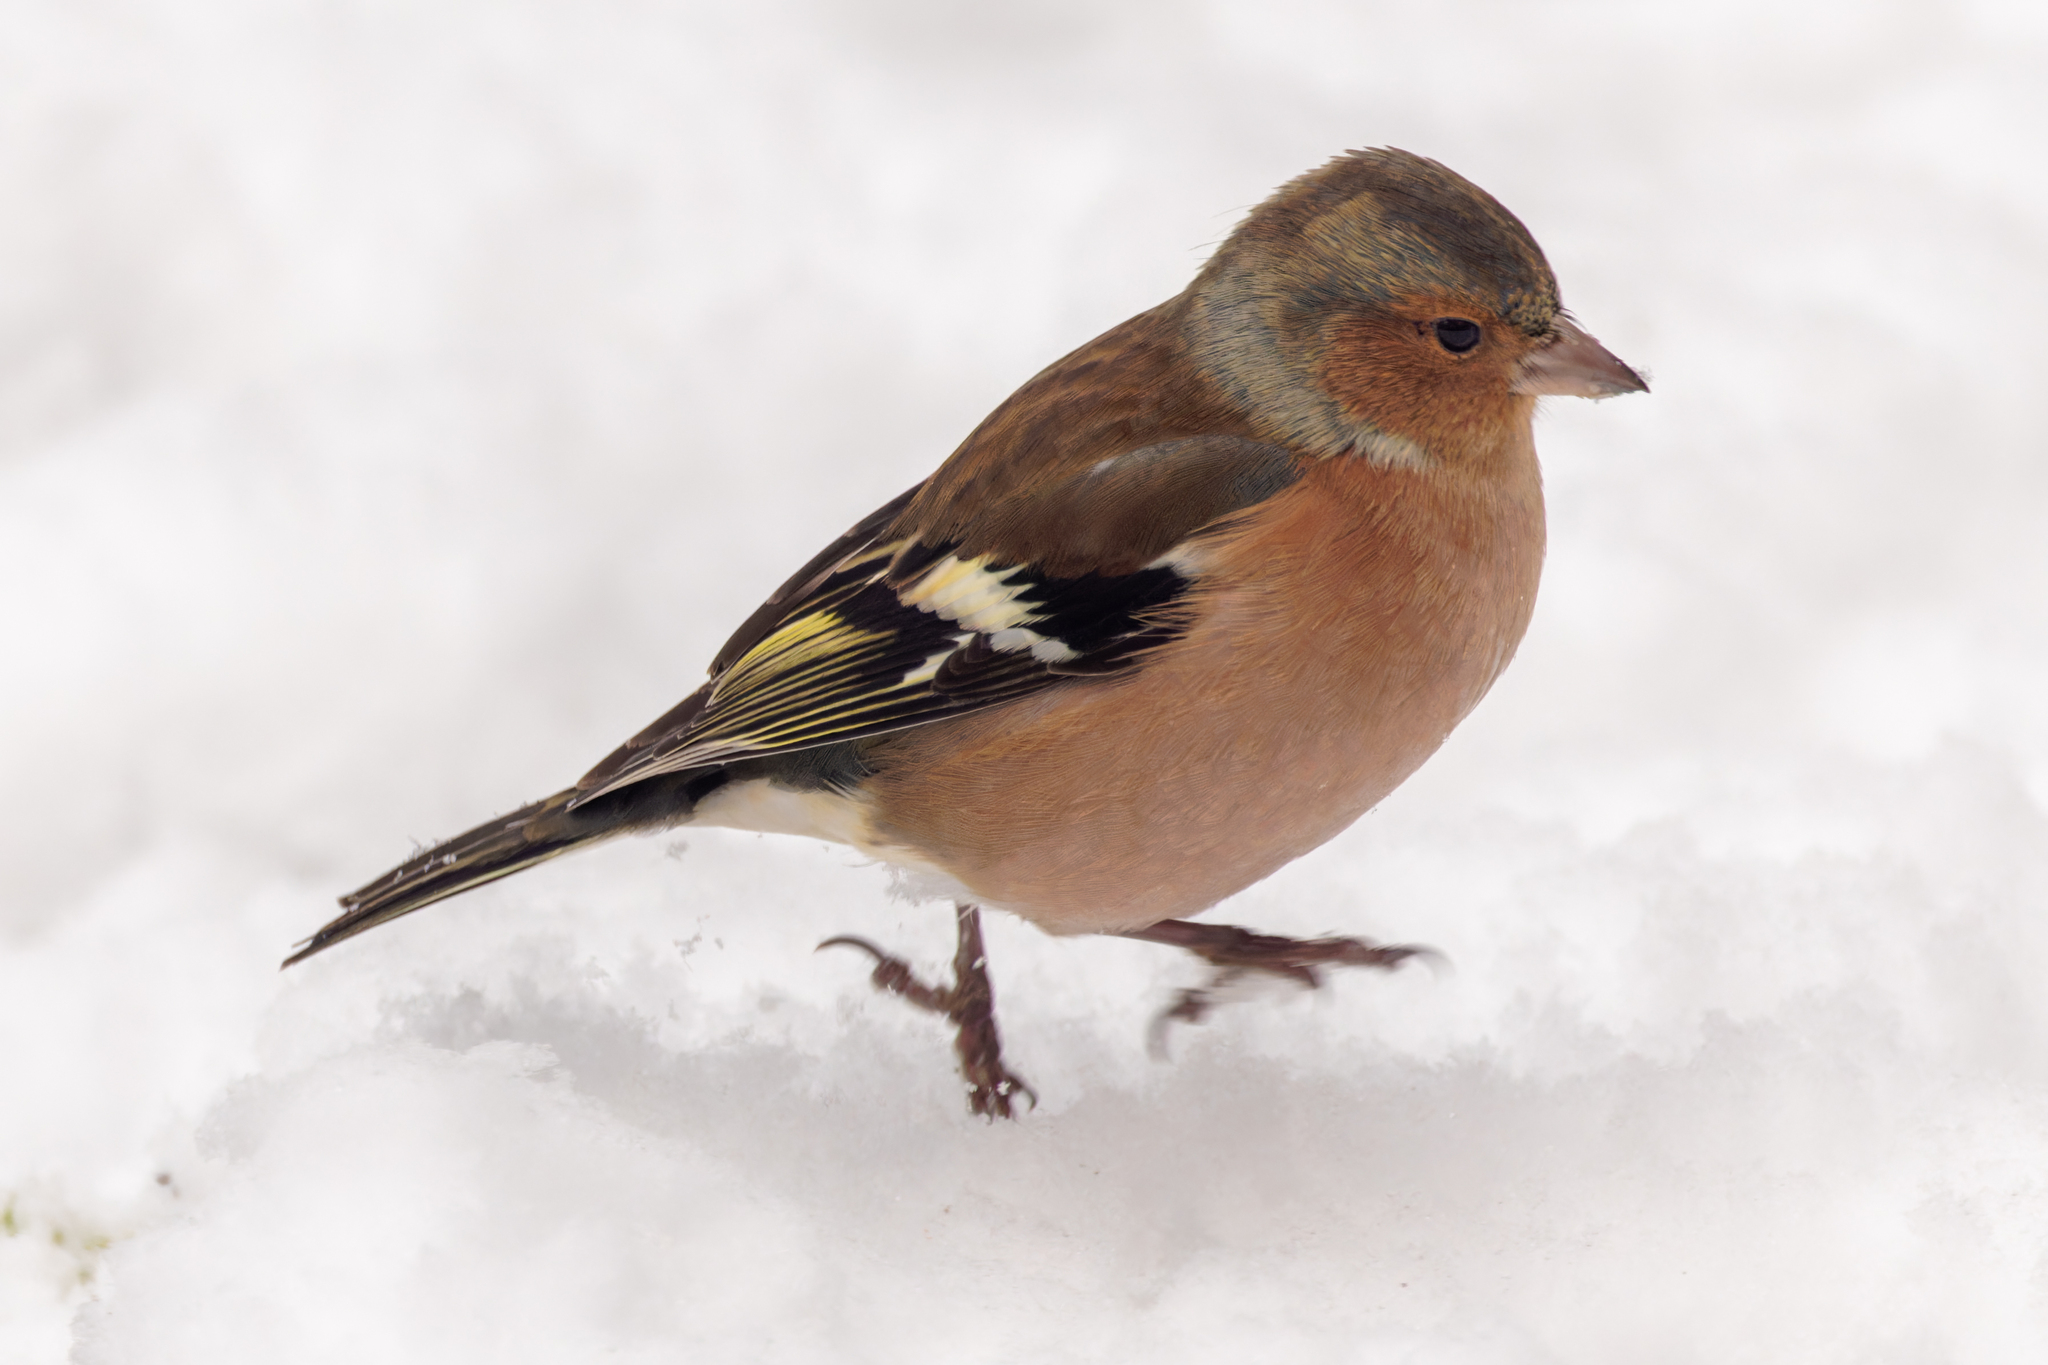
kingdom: Animalia
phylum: Chordata
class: Aves
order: Passeriformes
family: Fringillidae
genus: Fringilla
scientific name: Fringilla coelebs
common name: Common chaffinch
